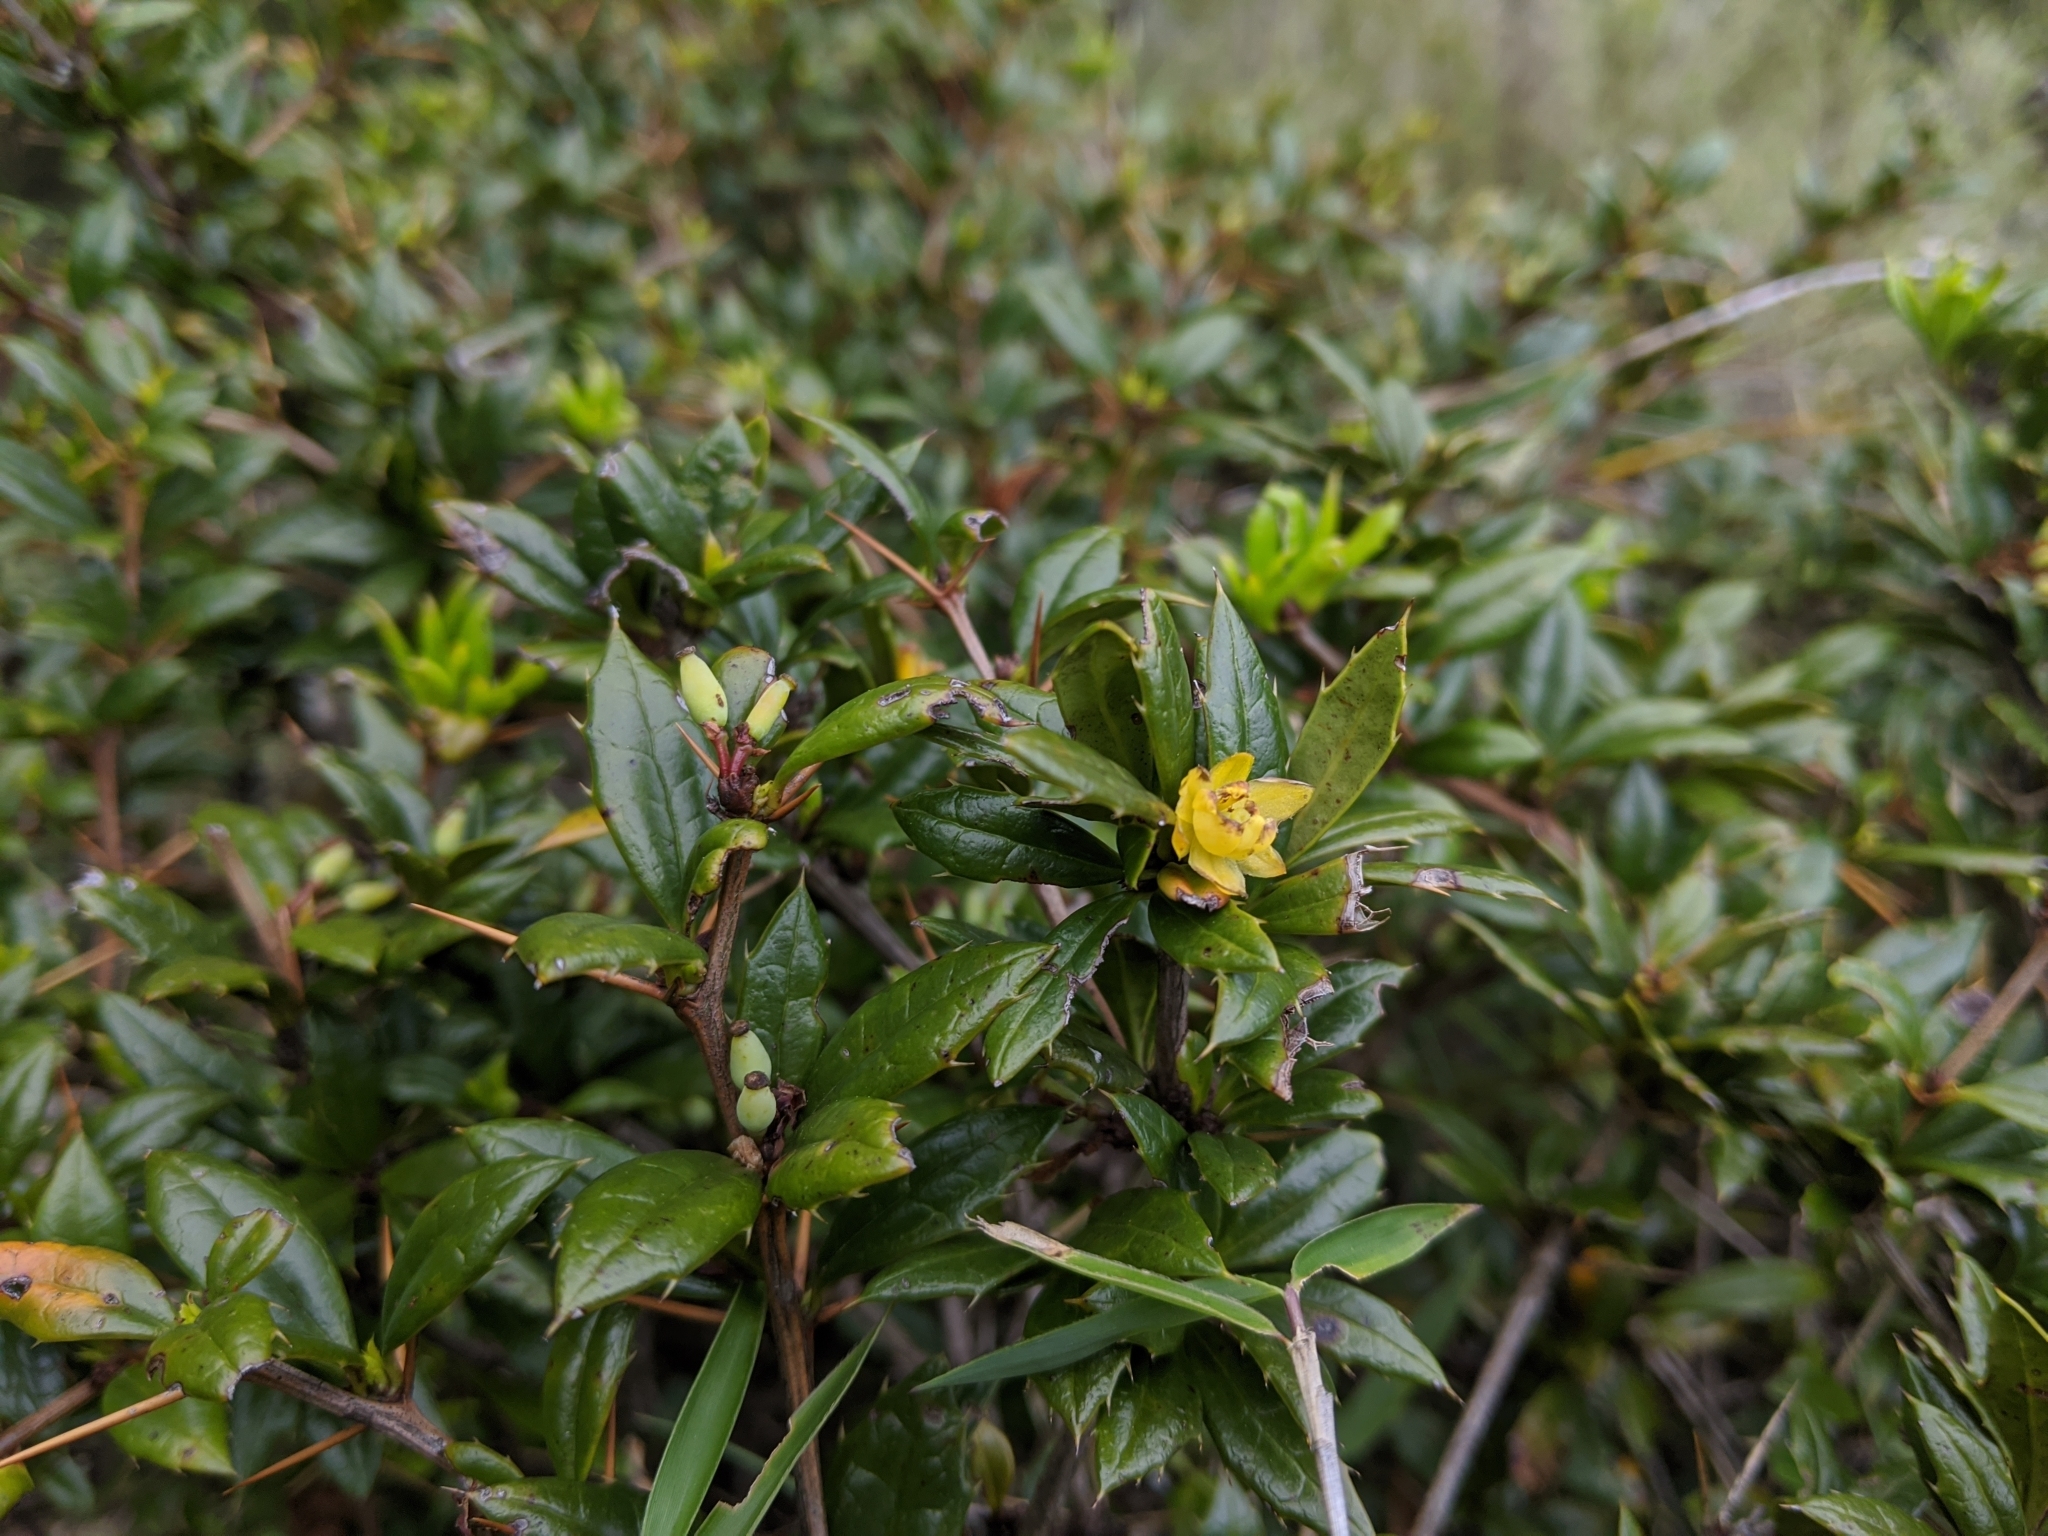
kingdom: Plantae
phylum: Tracheophyta
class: Magnoliopsida
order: Ranunculales
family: Berberidaceae
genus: Berberis
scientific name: Berberis nantoensis
